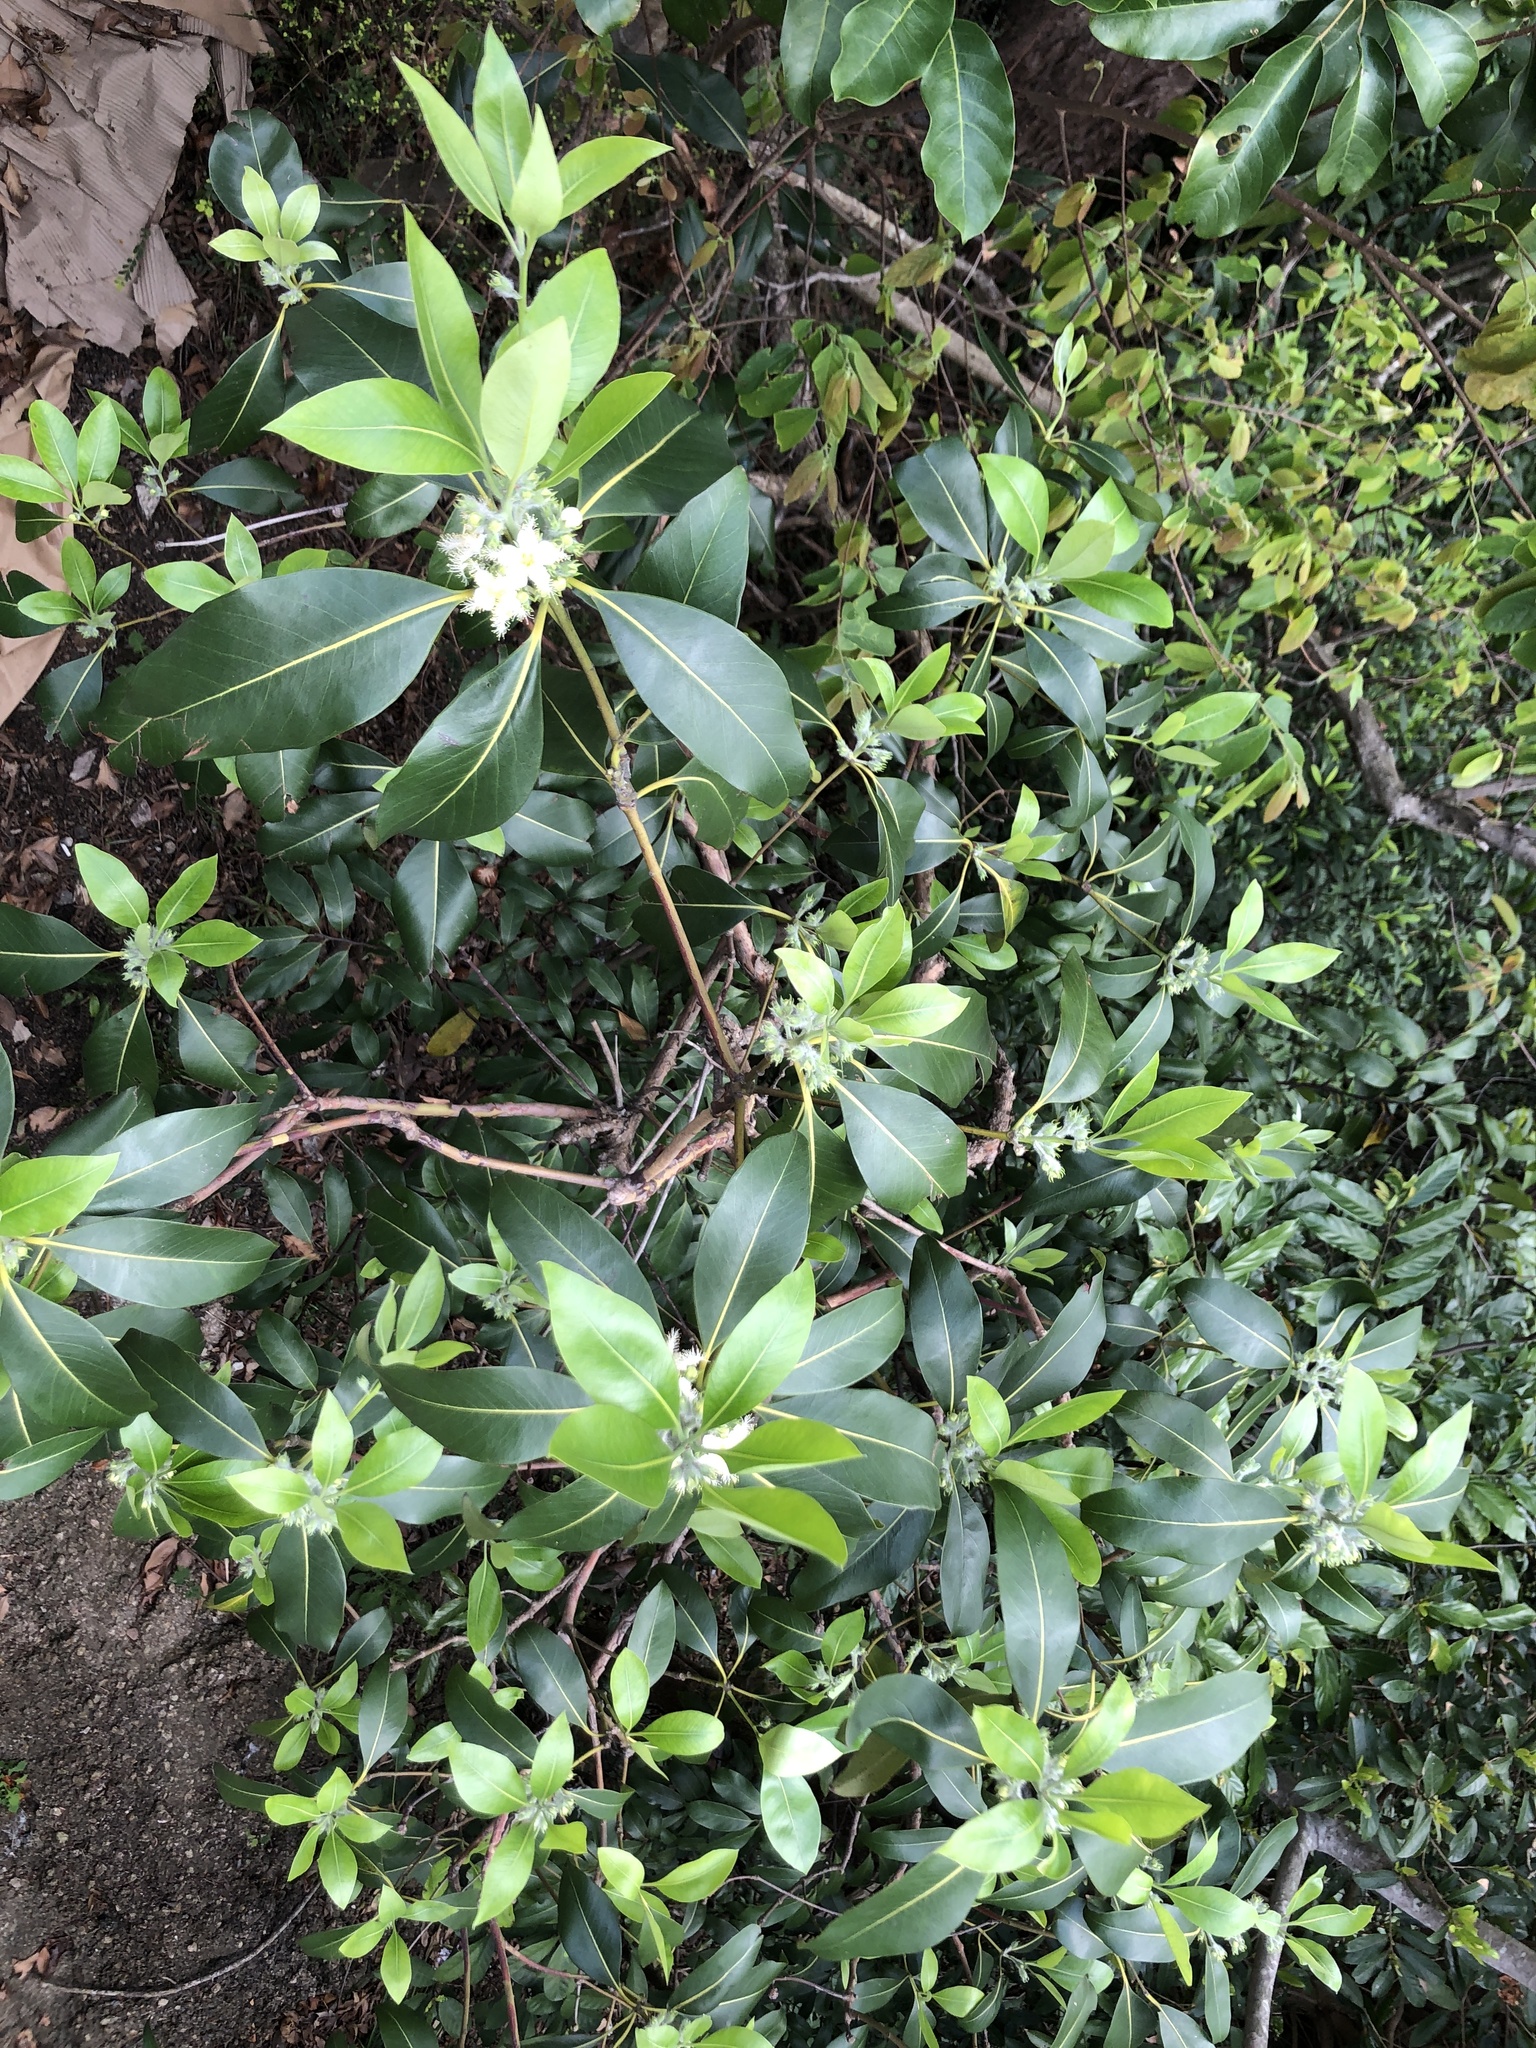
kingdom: Plantae
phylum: Tracheophyta
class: Magnoliopsida
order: Myrtales
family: Myrtaceae
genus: Lophostemon
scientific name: Lophostemon confertus
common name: Brisbane box
